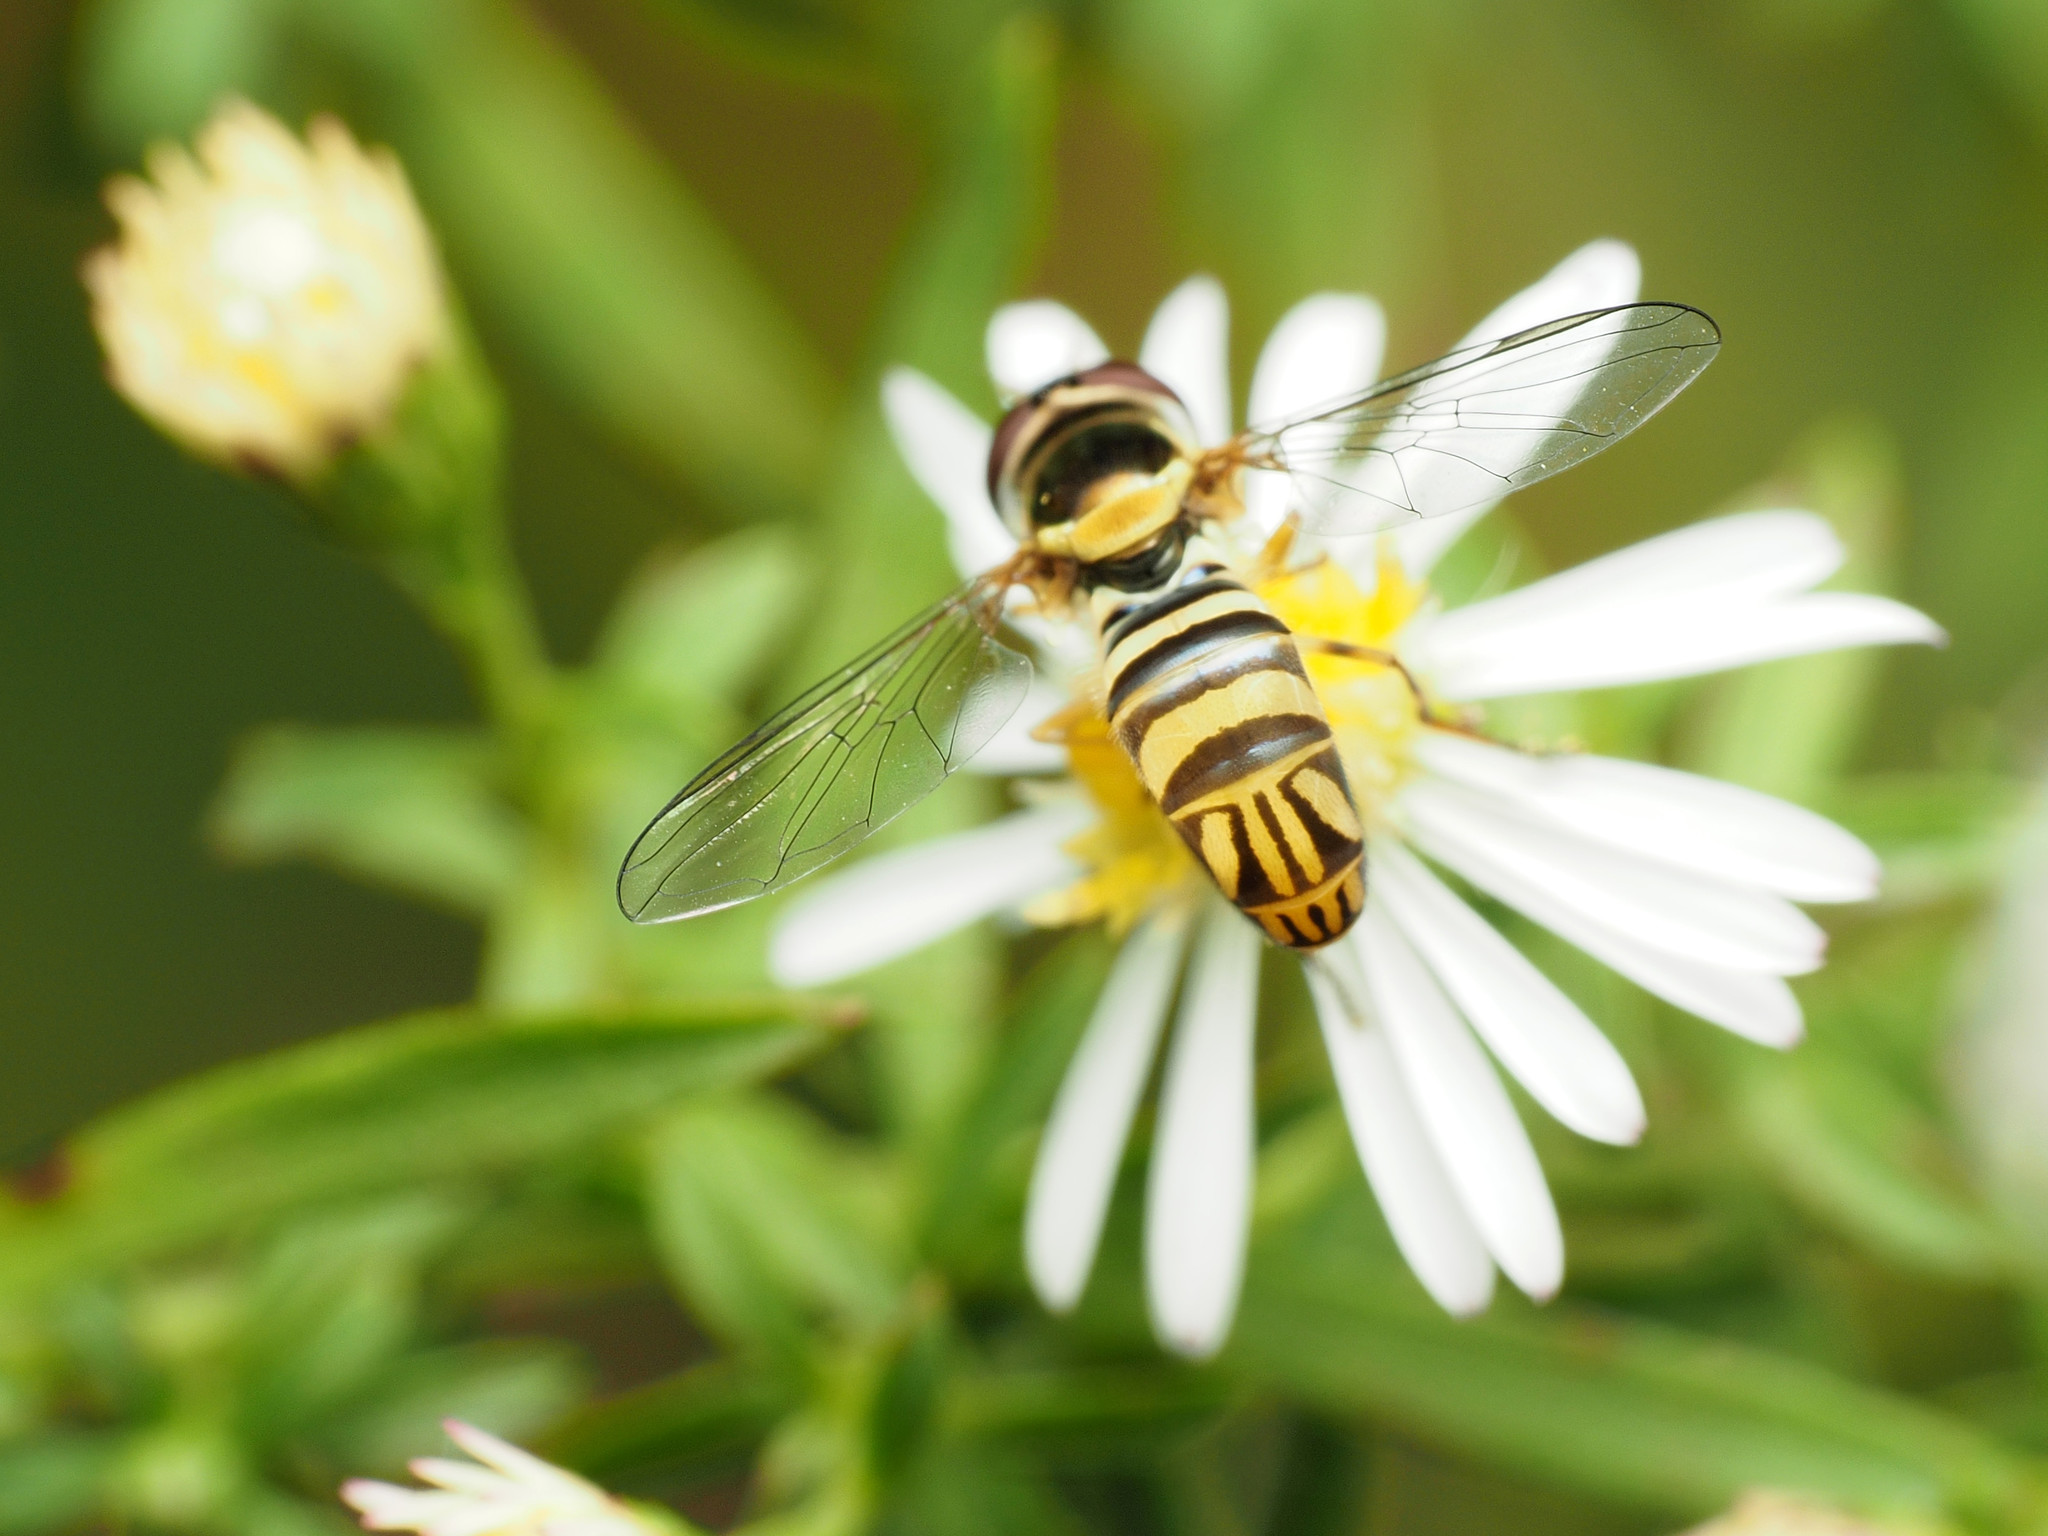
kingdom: Animalia
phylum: Arthropoda
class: Insecta
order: Diptera
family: Syrphidae
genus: Allograpta
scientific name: Allograpta obliqua
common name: Common oblique syrphid
